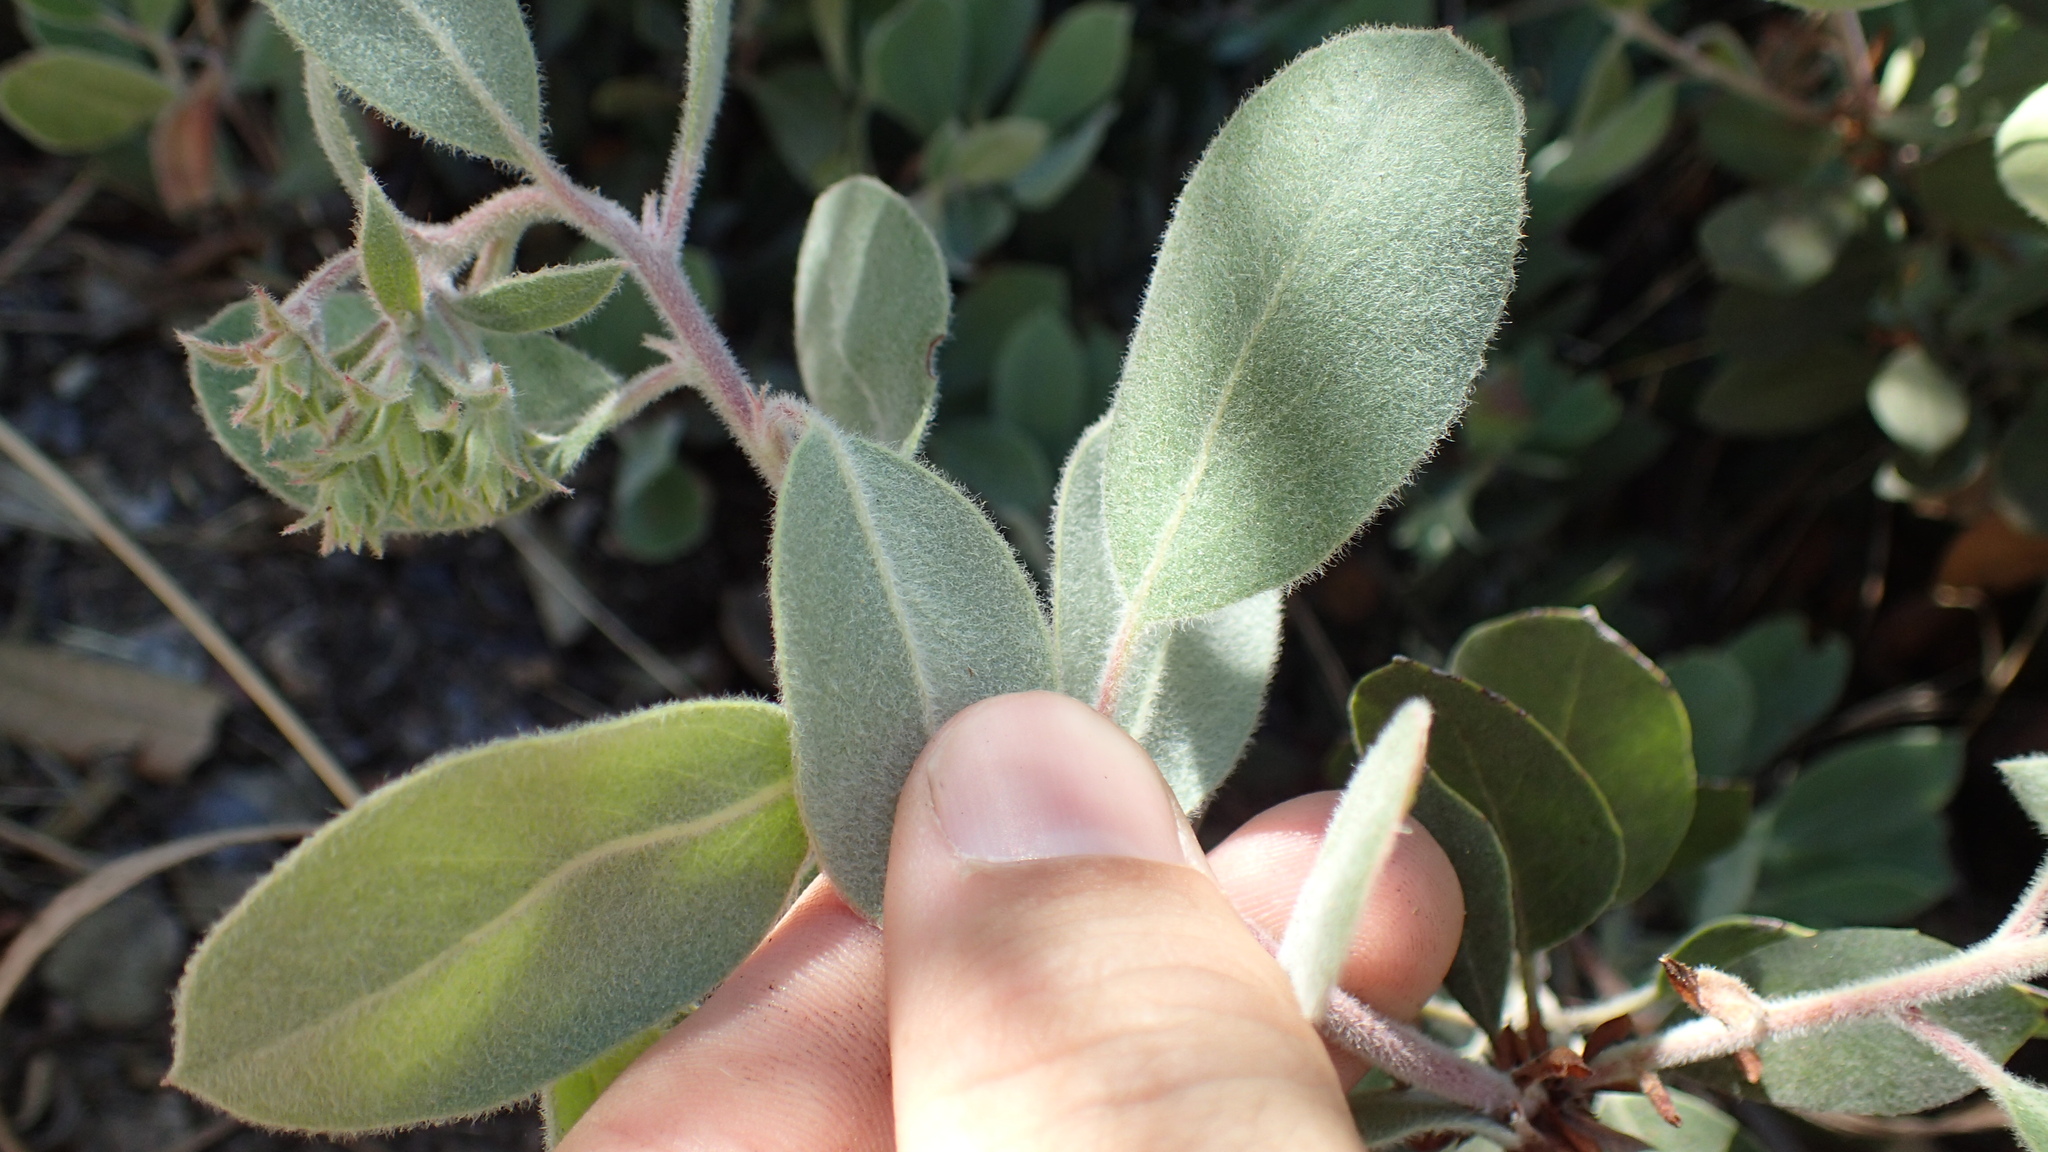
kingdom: Plantae
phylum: Tracheophyta
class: Magnoliopsida
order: Ericales
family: Ericaceae
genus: Arctostaphylos
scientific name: Arctostaphylos silvicola
